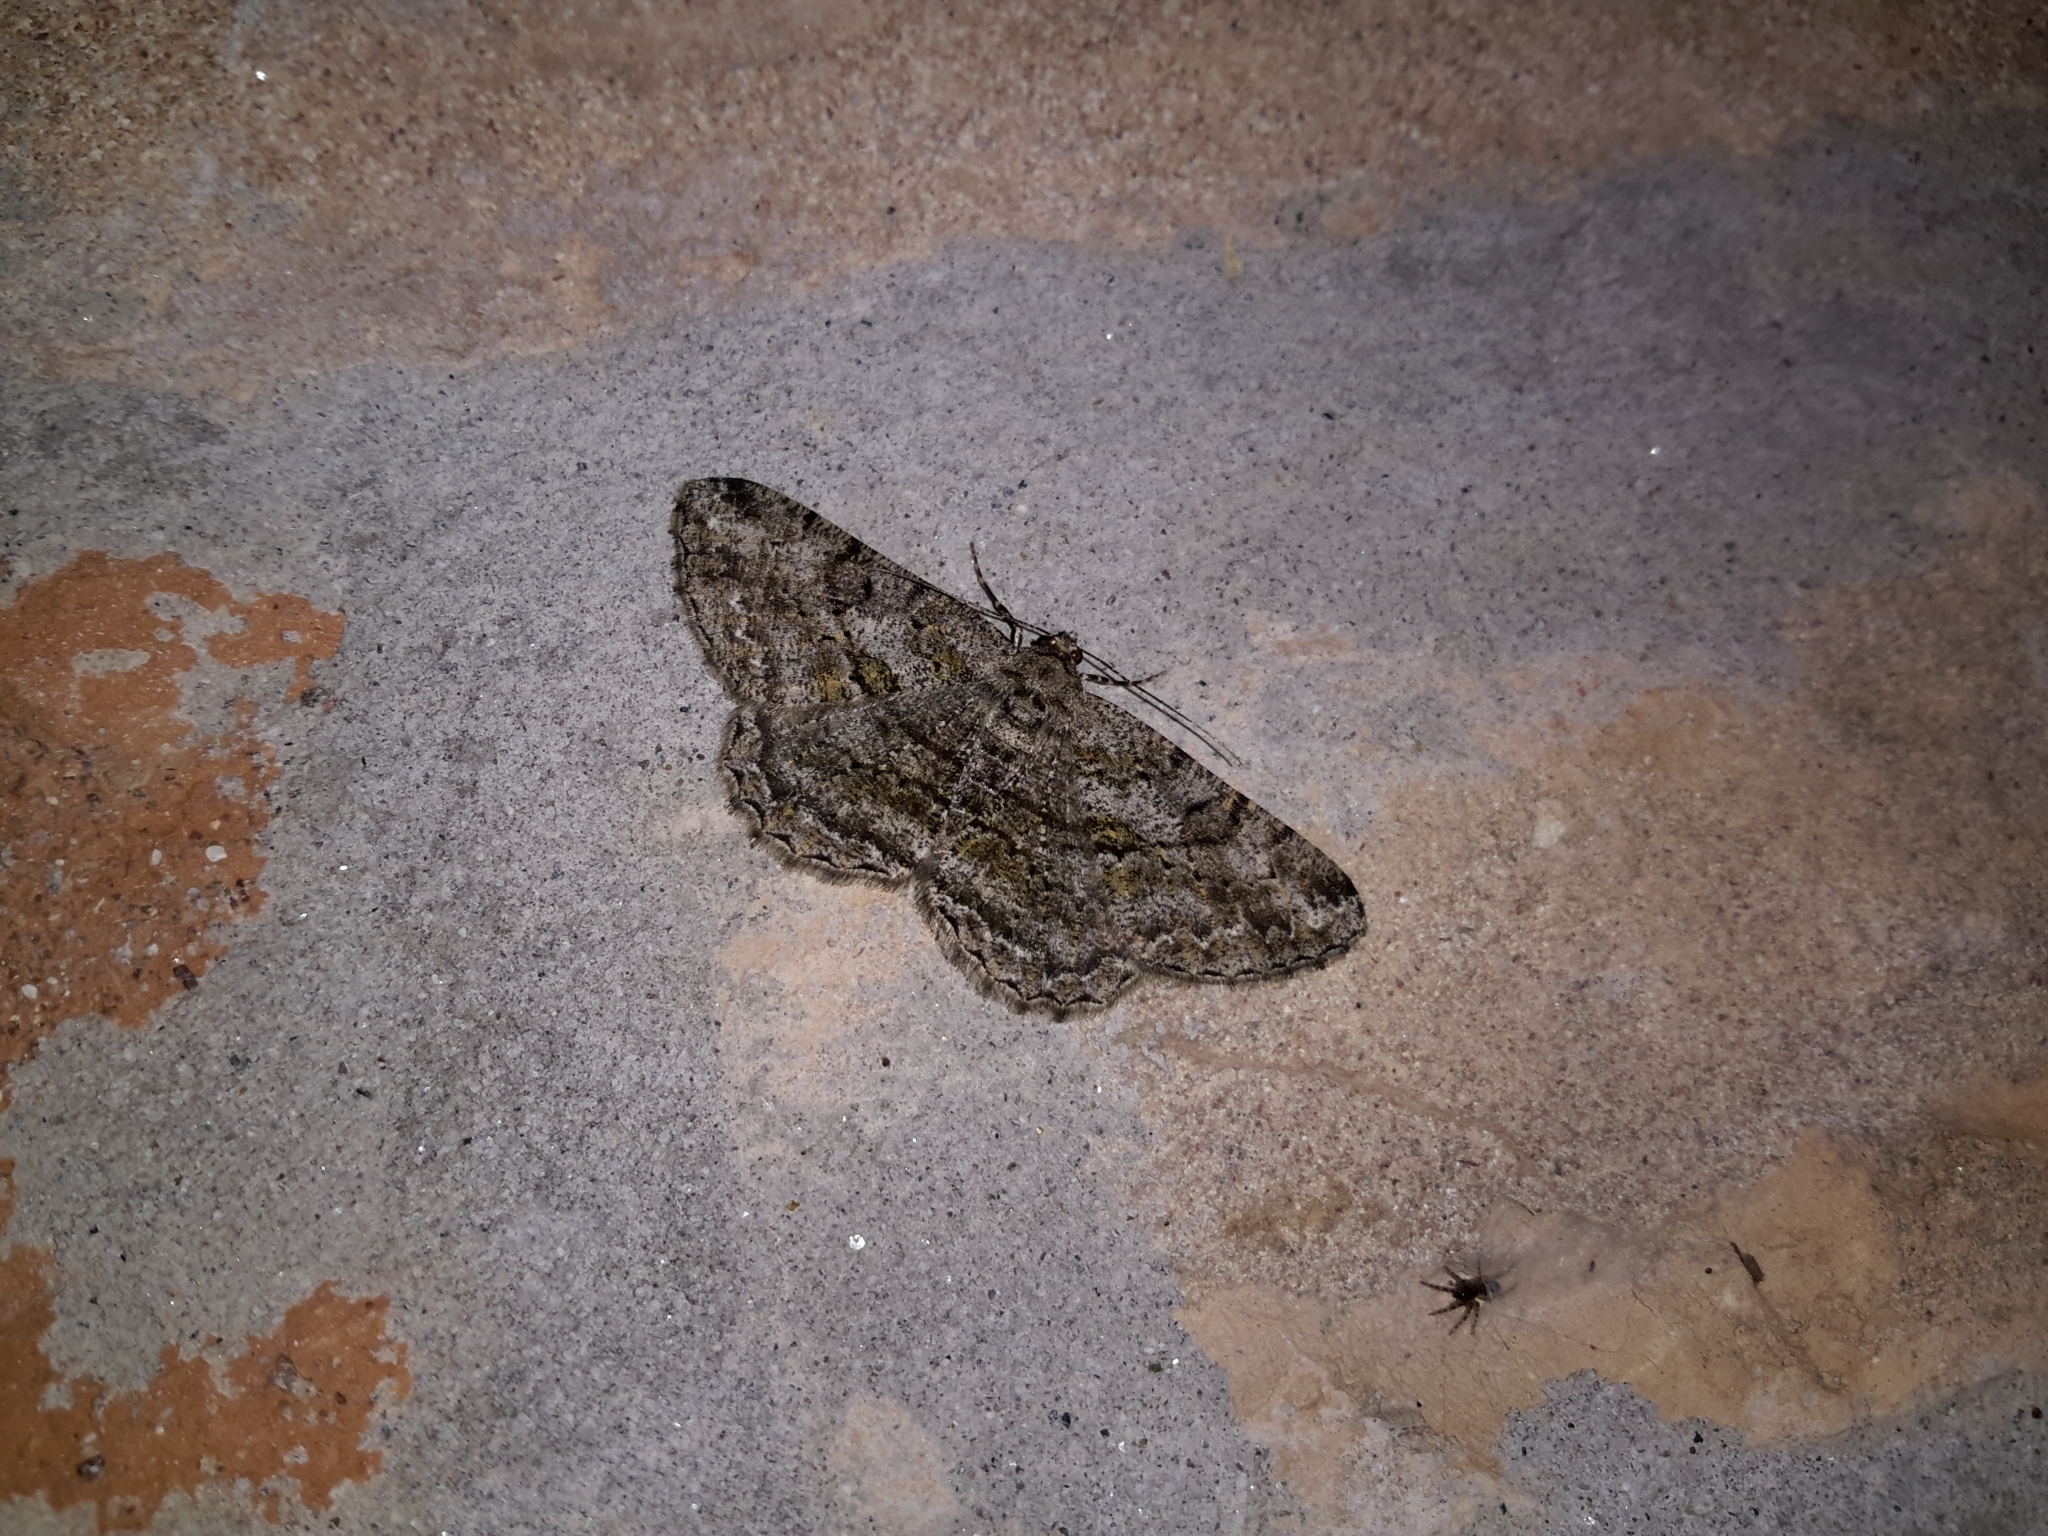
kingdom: Animalia
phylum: Arthropoda
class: Insecta
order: Lepidoptera
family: Geometridae
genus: Peribatodes
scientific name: Peribatodes rhomboidaria
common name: Willow beauty
